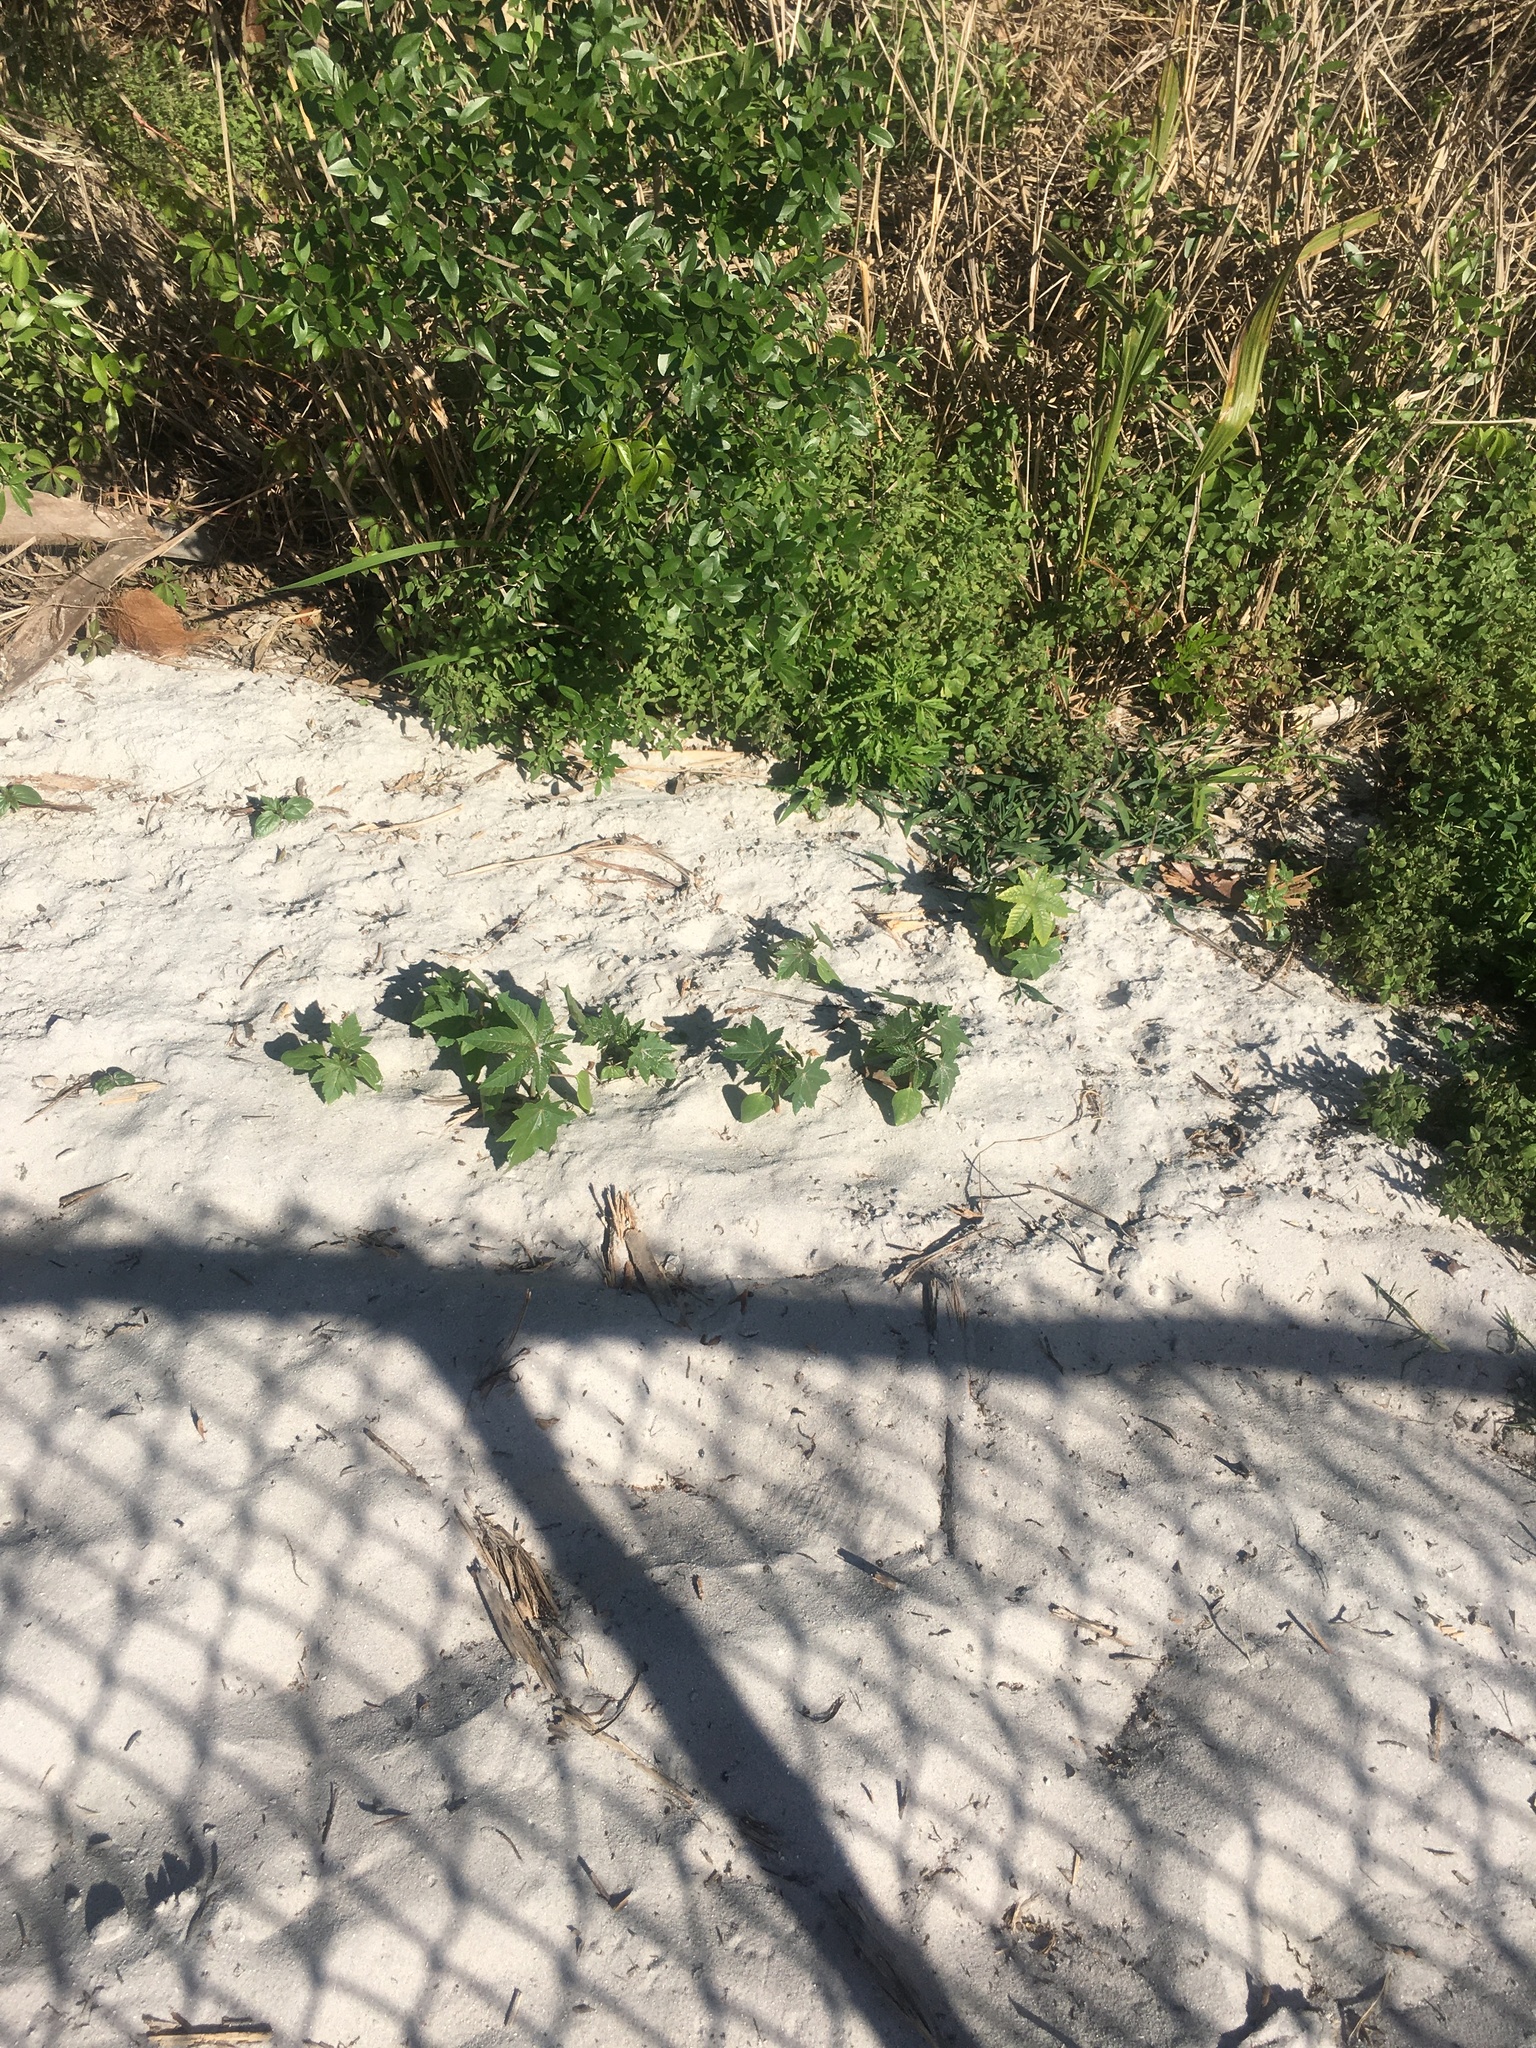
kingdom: Plantae
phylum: Tracheophyta
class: Magnoliopsida
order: Malpighiales
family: Euphorbiaceae
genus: Ricinus
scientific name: Ricinus communis
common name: Castor-oil-plant
